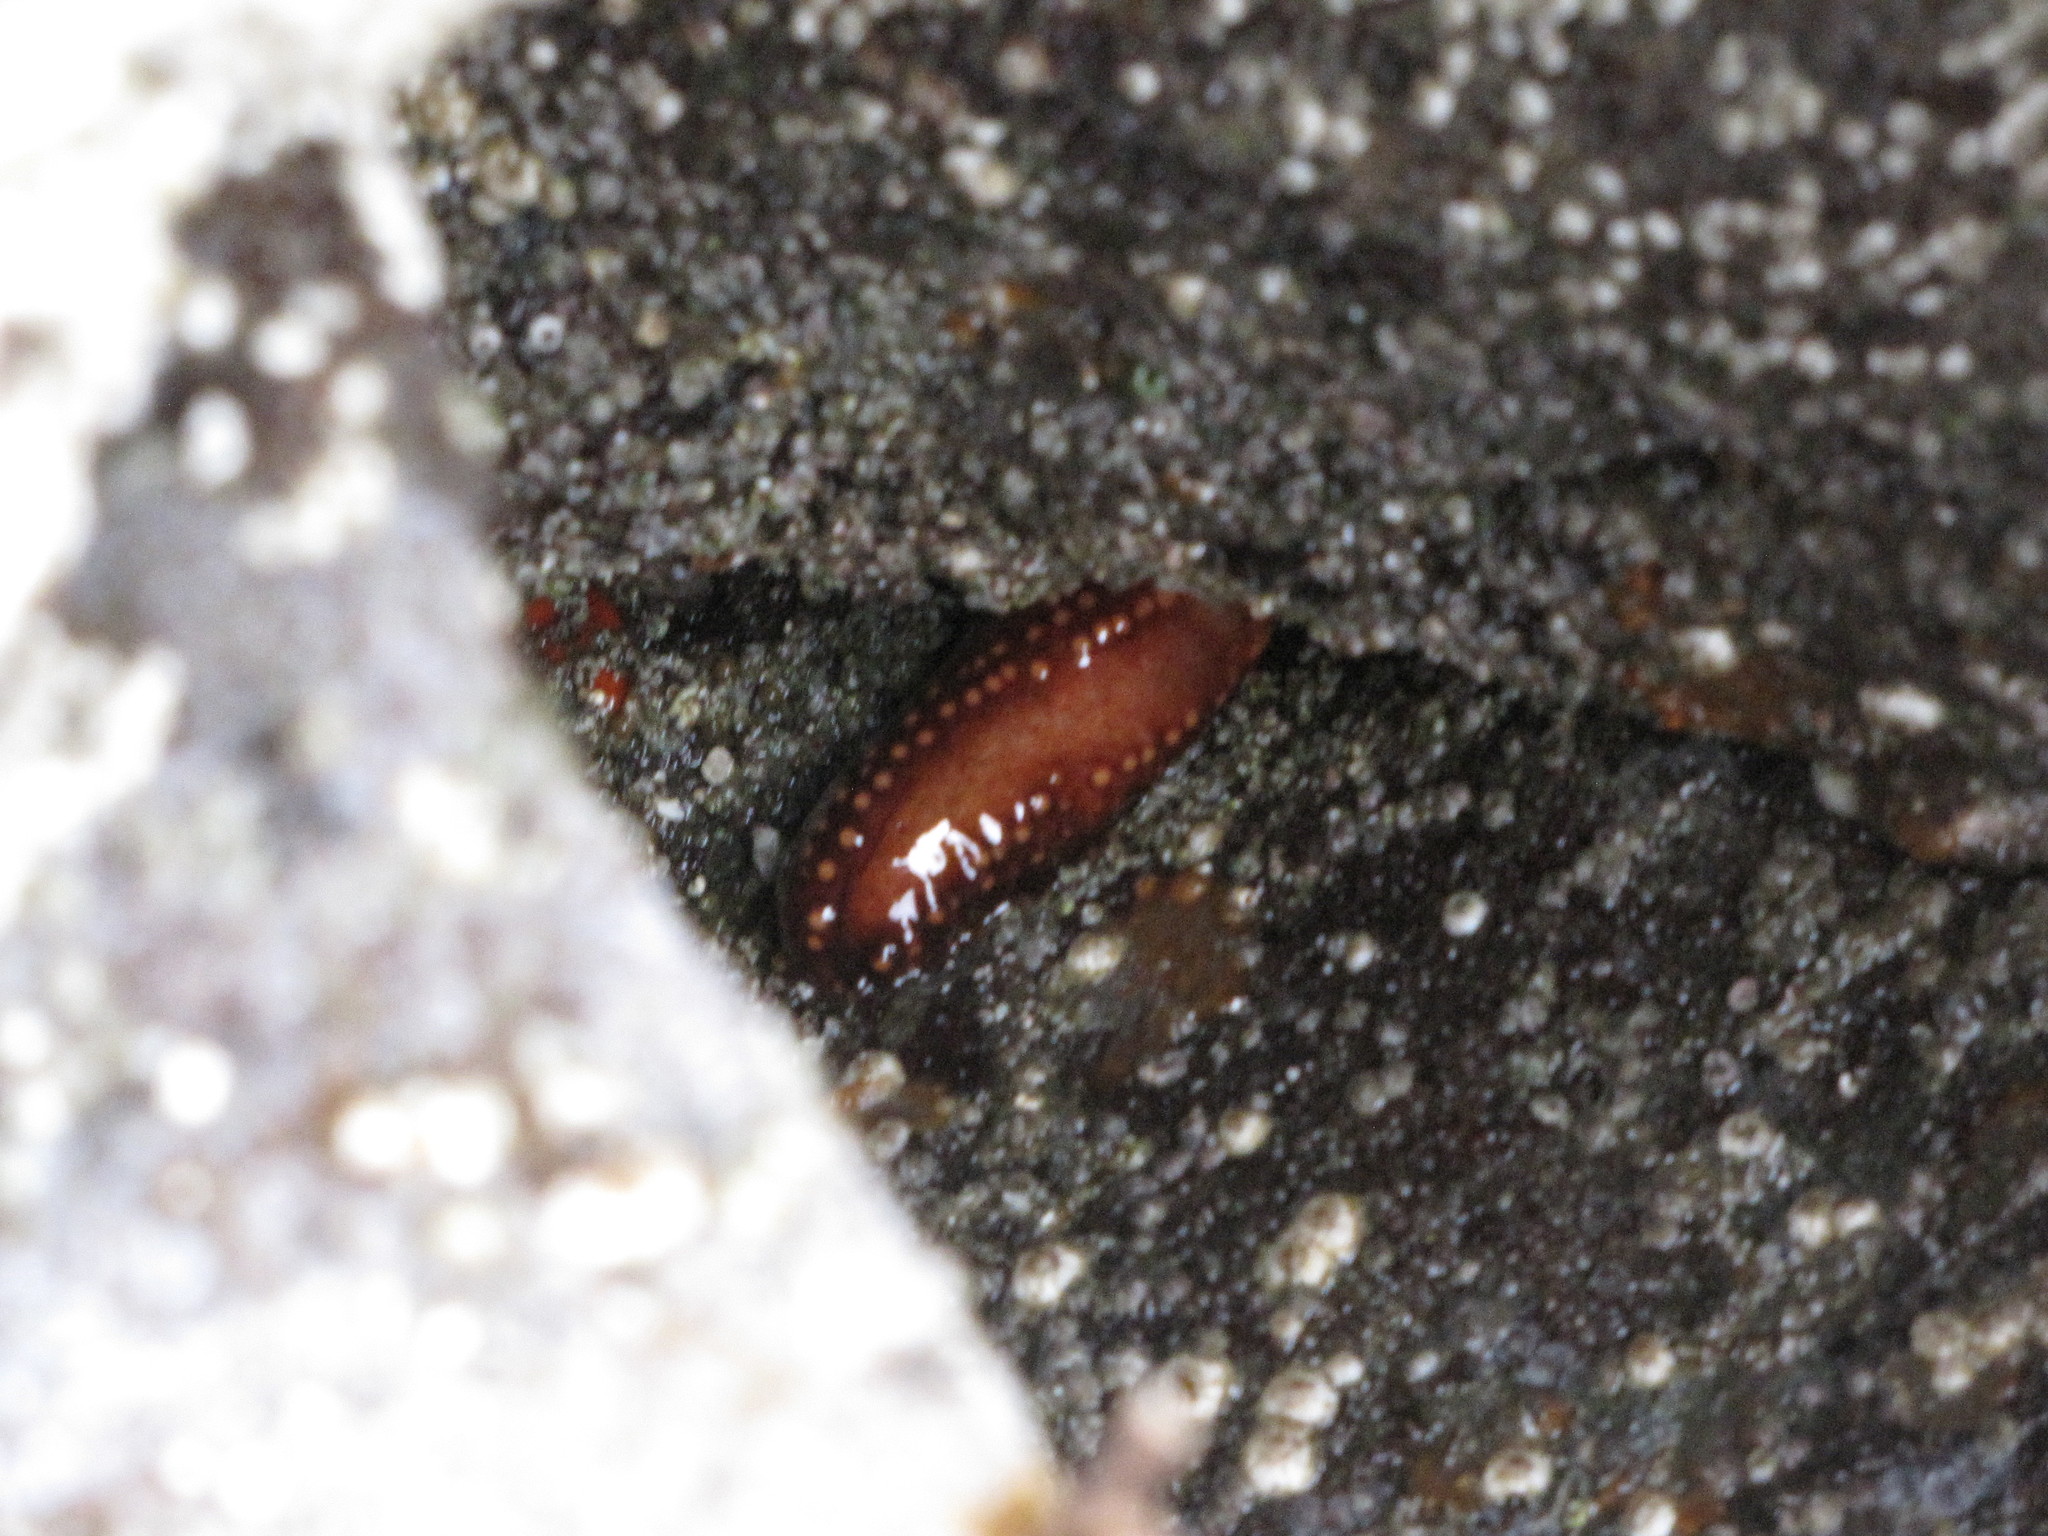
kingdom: Animalia
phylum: Echinodermata
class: Holothuroidea
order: Dendrochirotida
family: Cucumariidae
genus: Cucumaria
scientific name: Cucumaria miniata
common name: Orange sea cucumber
